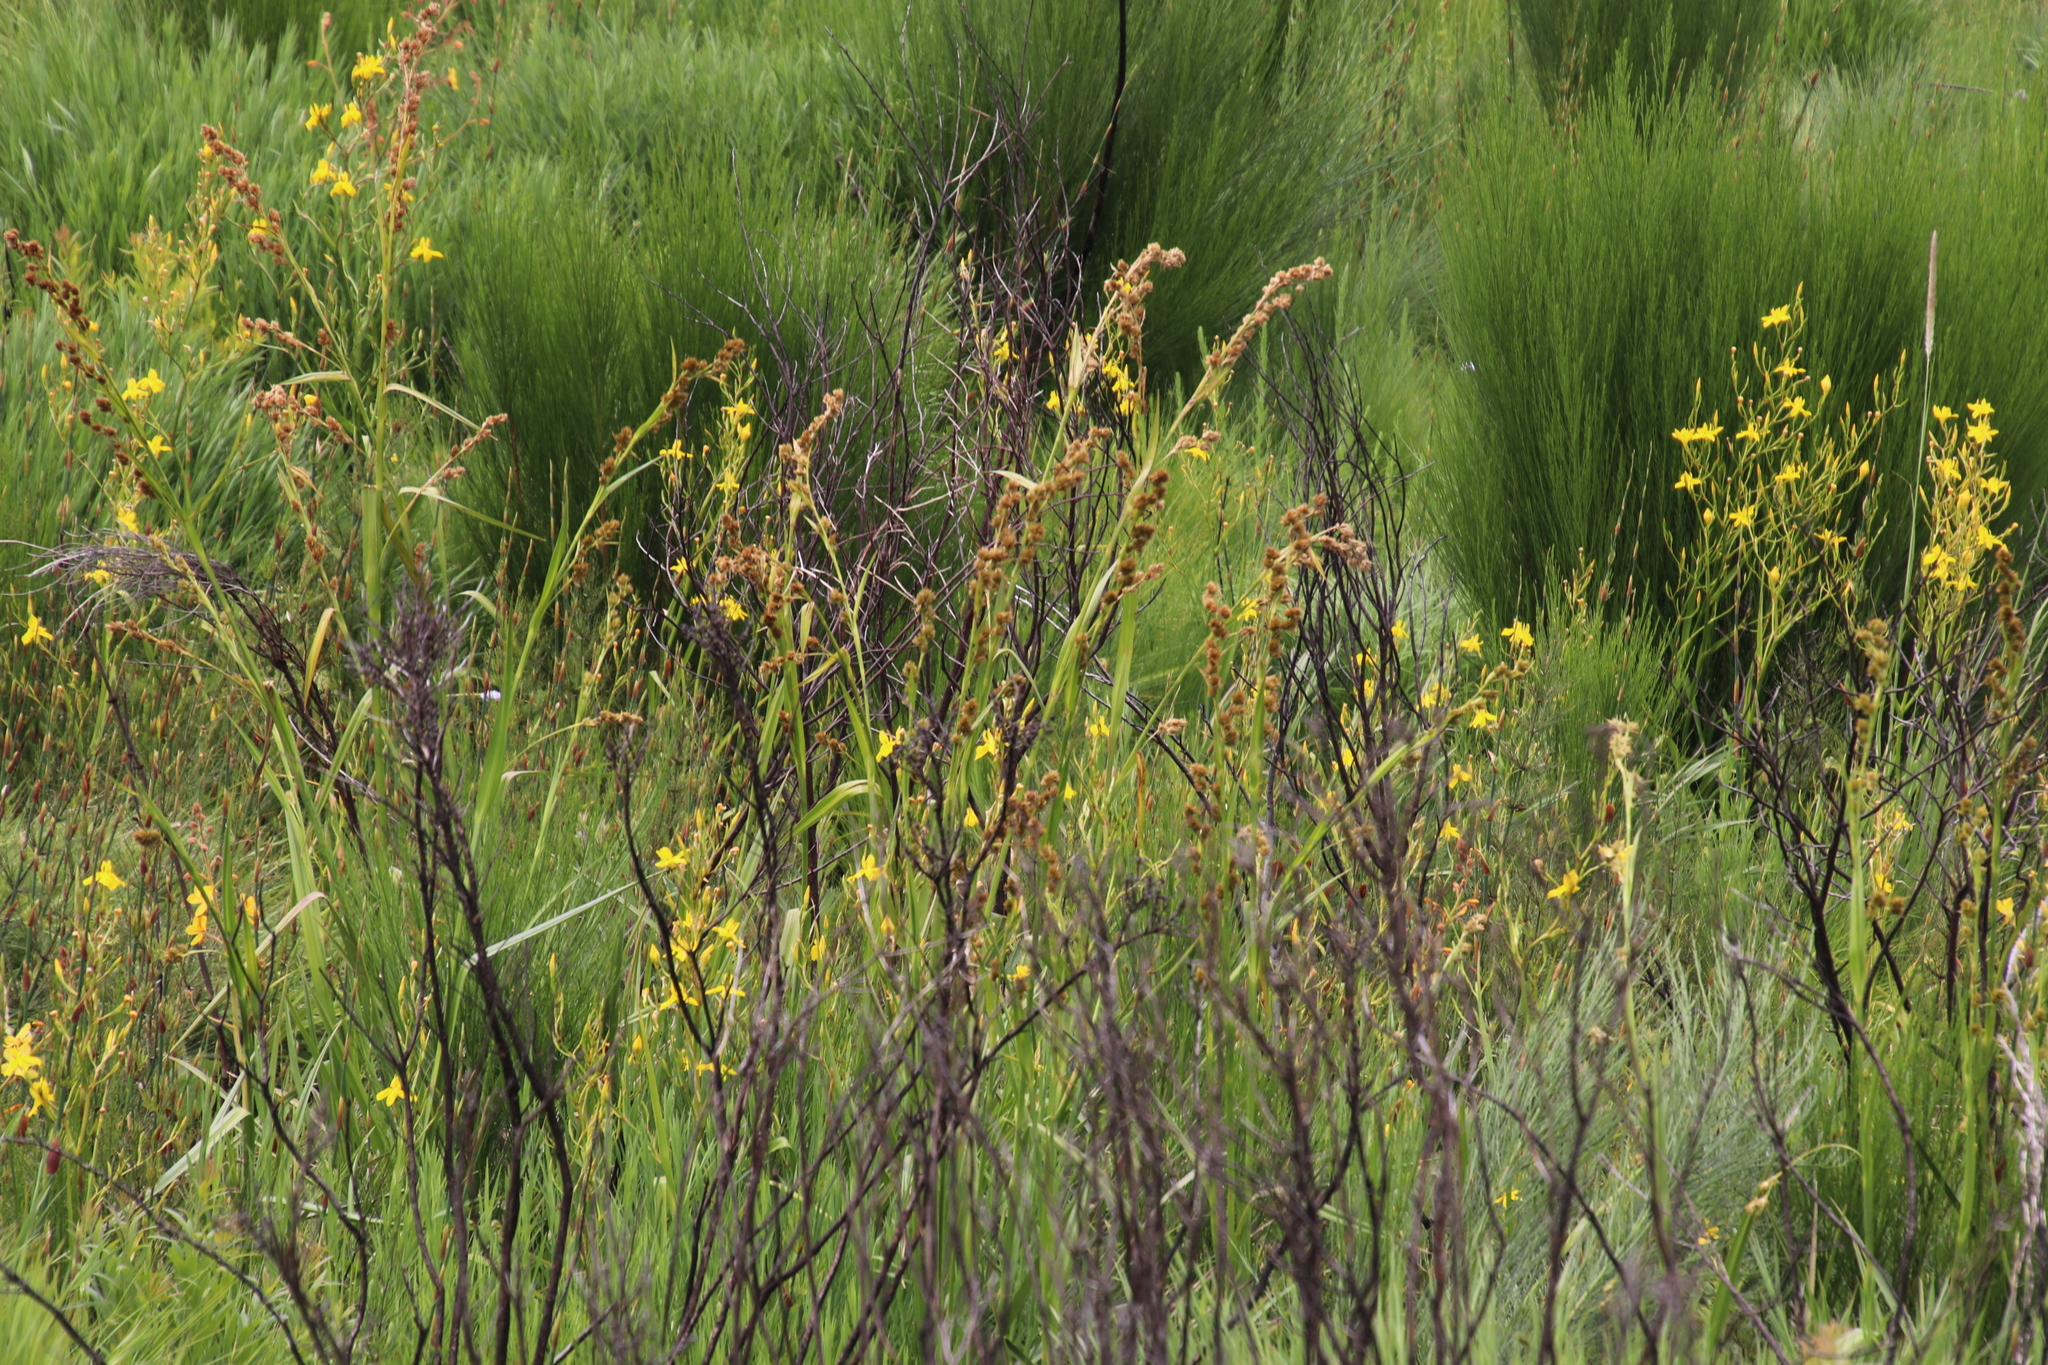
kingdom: Plantae
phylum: Tracheophyta
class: Liliopsida
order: Poales
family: Cyperaceae
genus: Carpha
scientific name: Carpha glomerata
